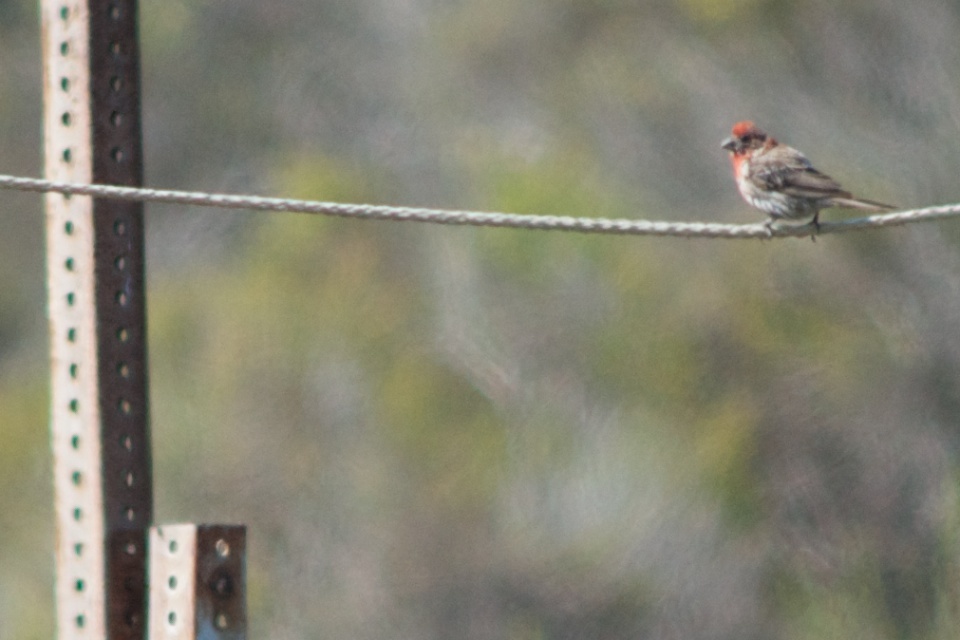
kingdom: Animalia
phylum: Chordata
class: Aves
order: Passeriformes
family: Fringillidae
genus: Haemorhous
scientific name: Haemorhous mexicanus
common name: House finch
